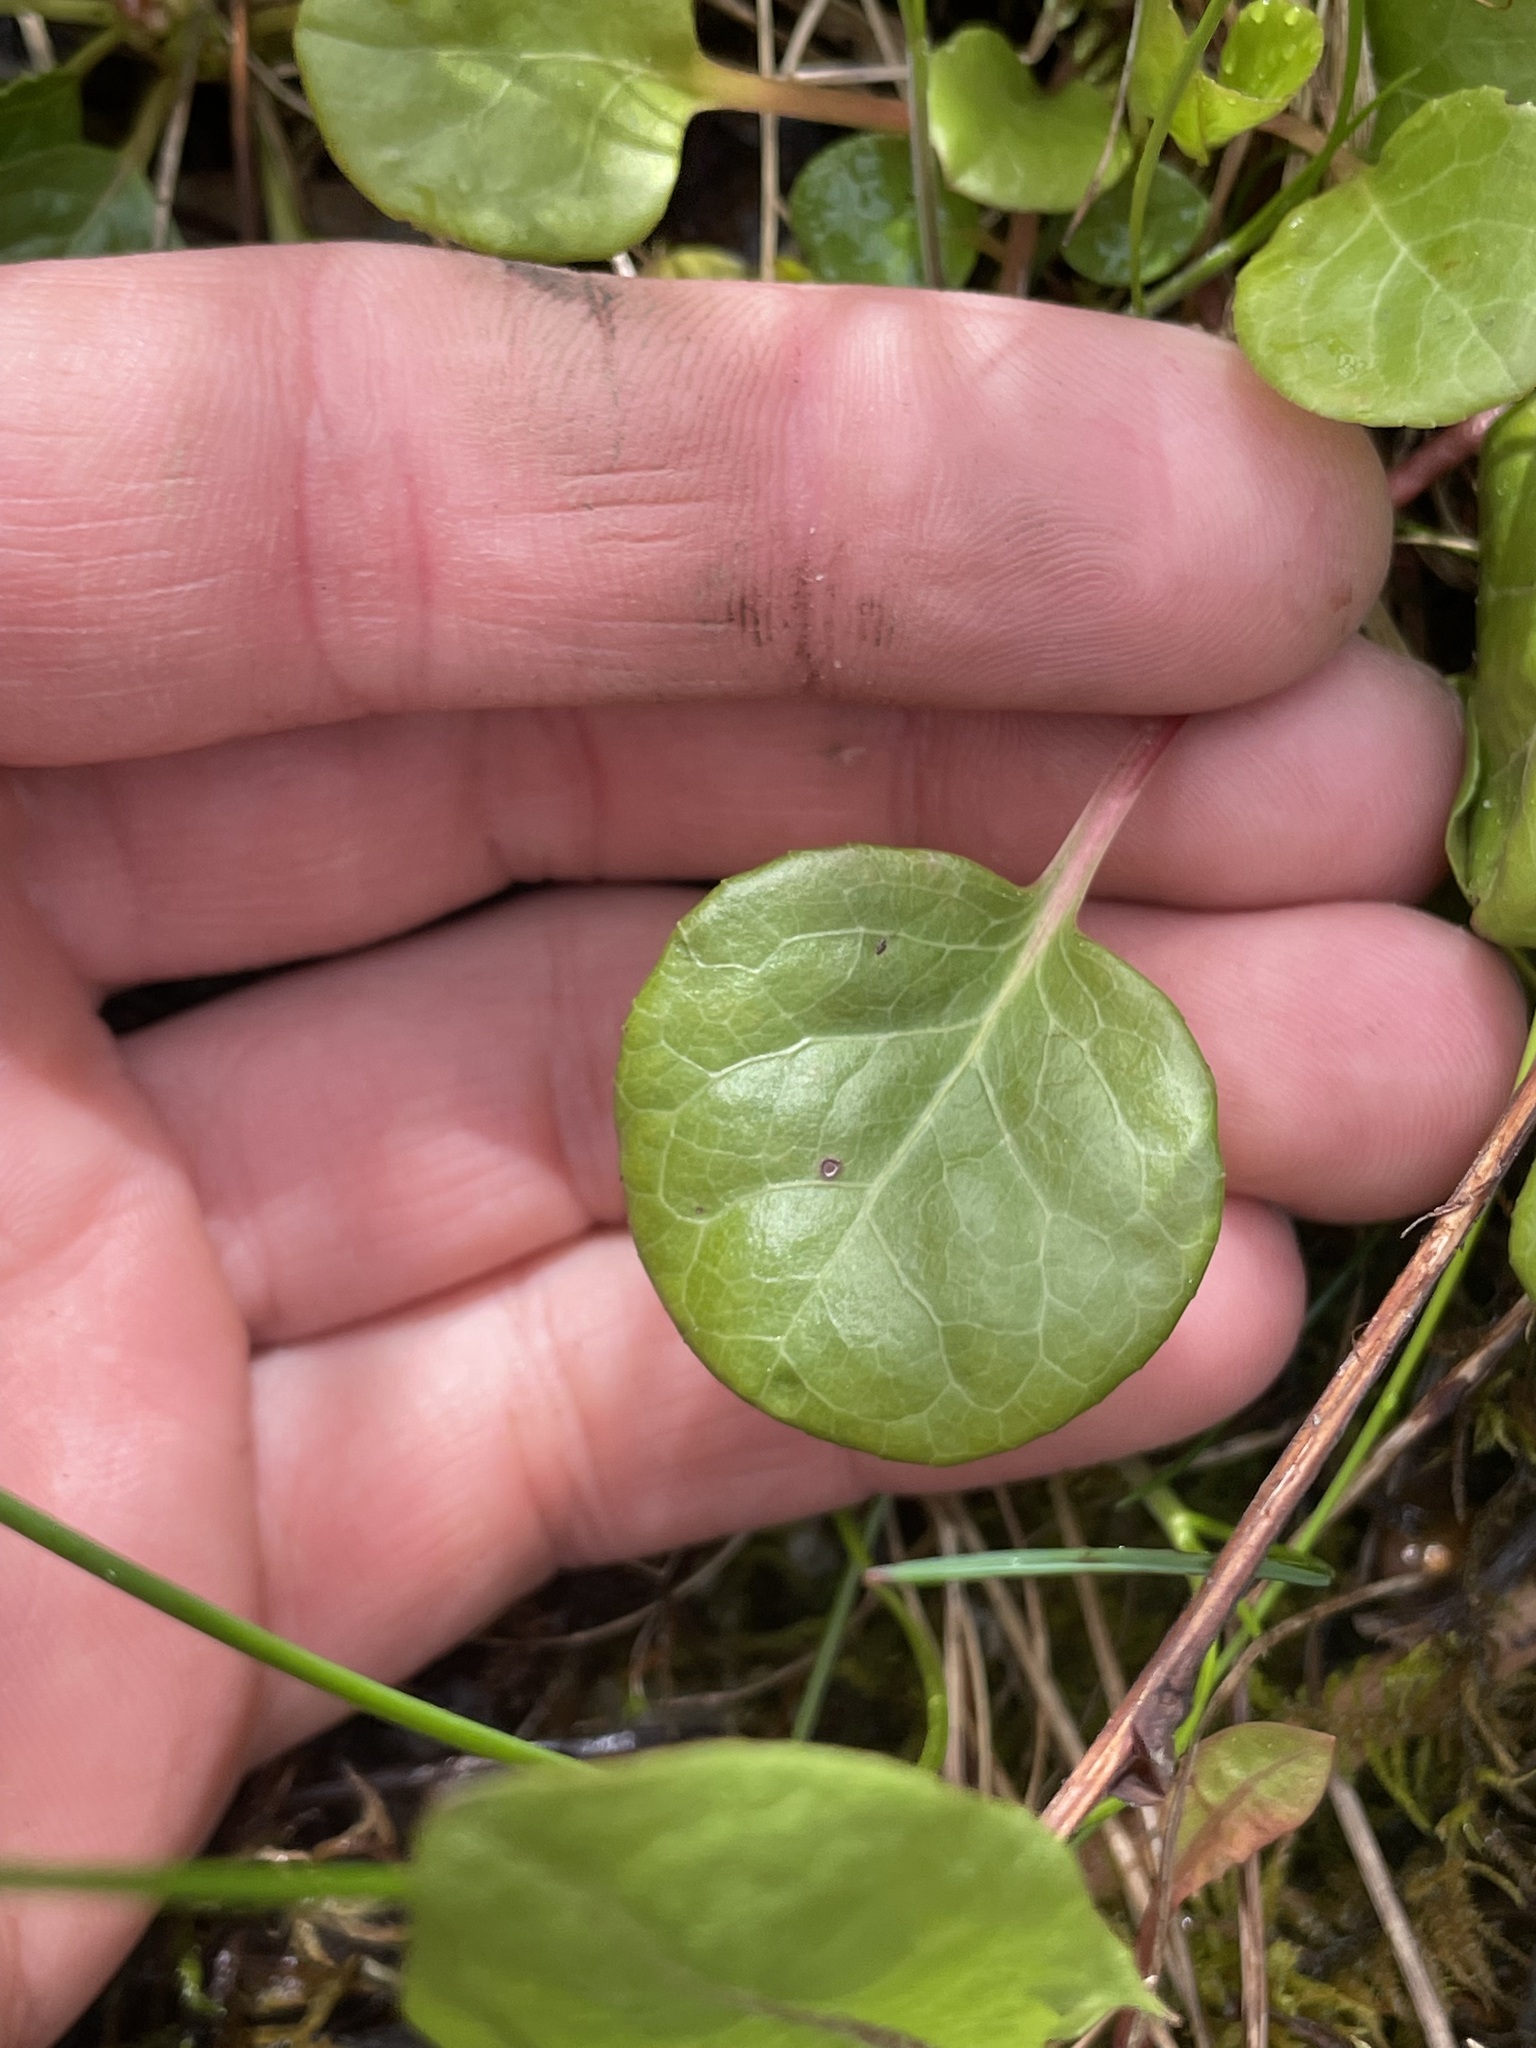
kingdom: Plantae
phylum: Tracheophyta
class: Magnoliopsida
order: Ericales
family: Ericaceae
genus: Pyrola
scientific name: Pyrola asarifolia
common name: Bog wintergreen
